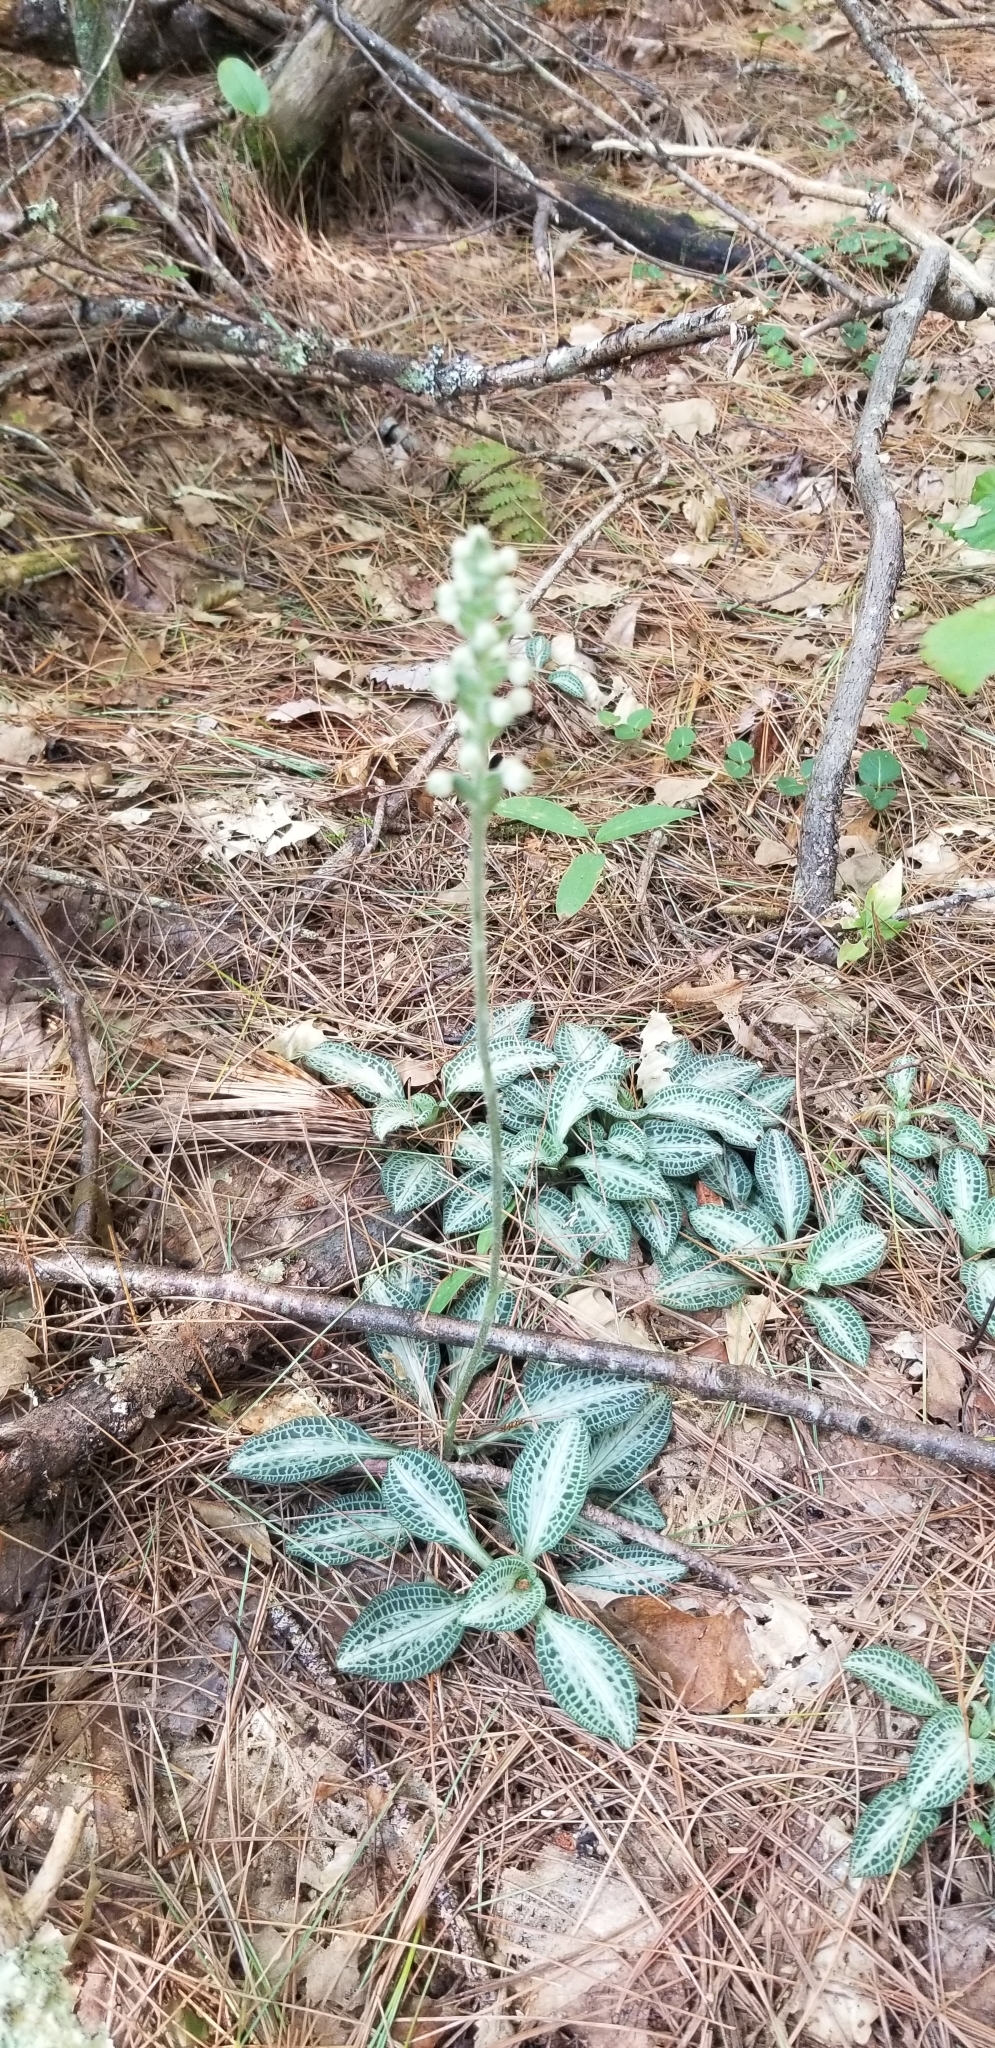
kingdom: Plantae
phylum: Tracheophyta
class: Liliopsida
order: Asparagales
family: Orchidaceae
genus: Goodyera
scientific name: Goodyera pubescens
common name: Downy rattlesnake-plantain
